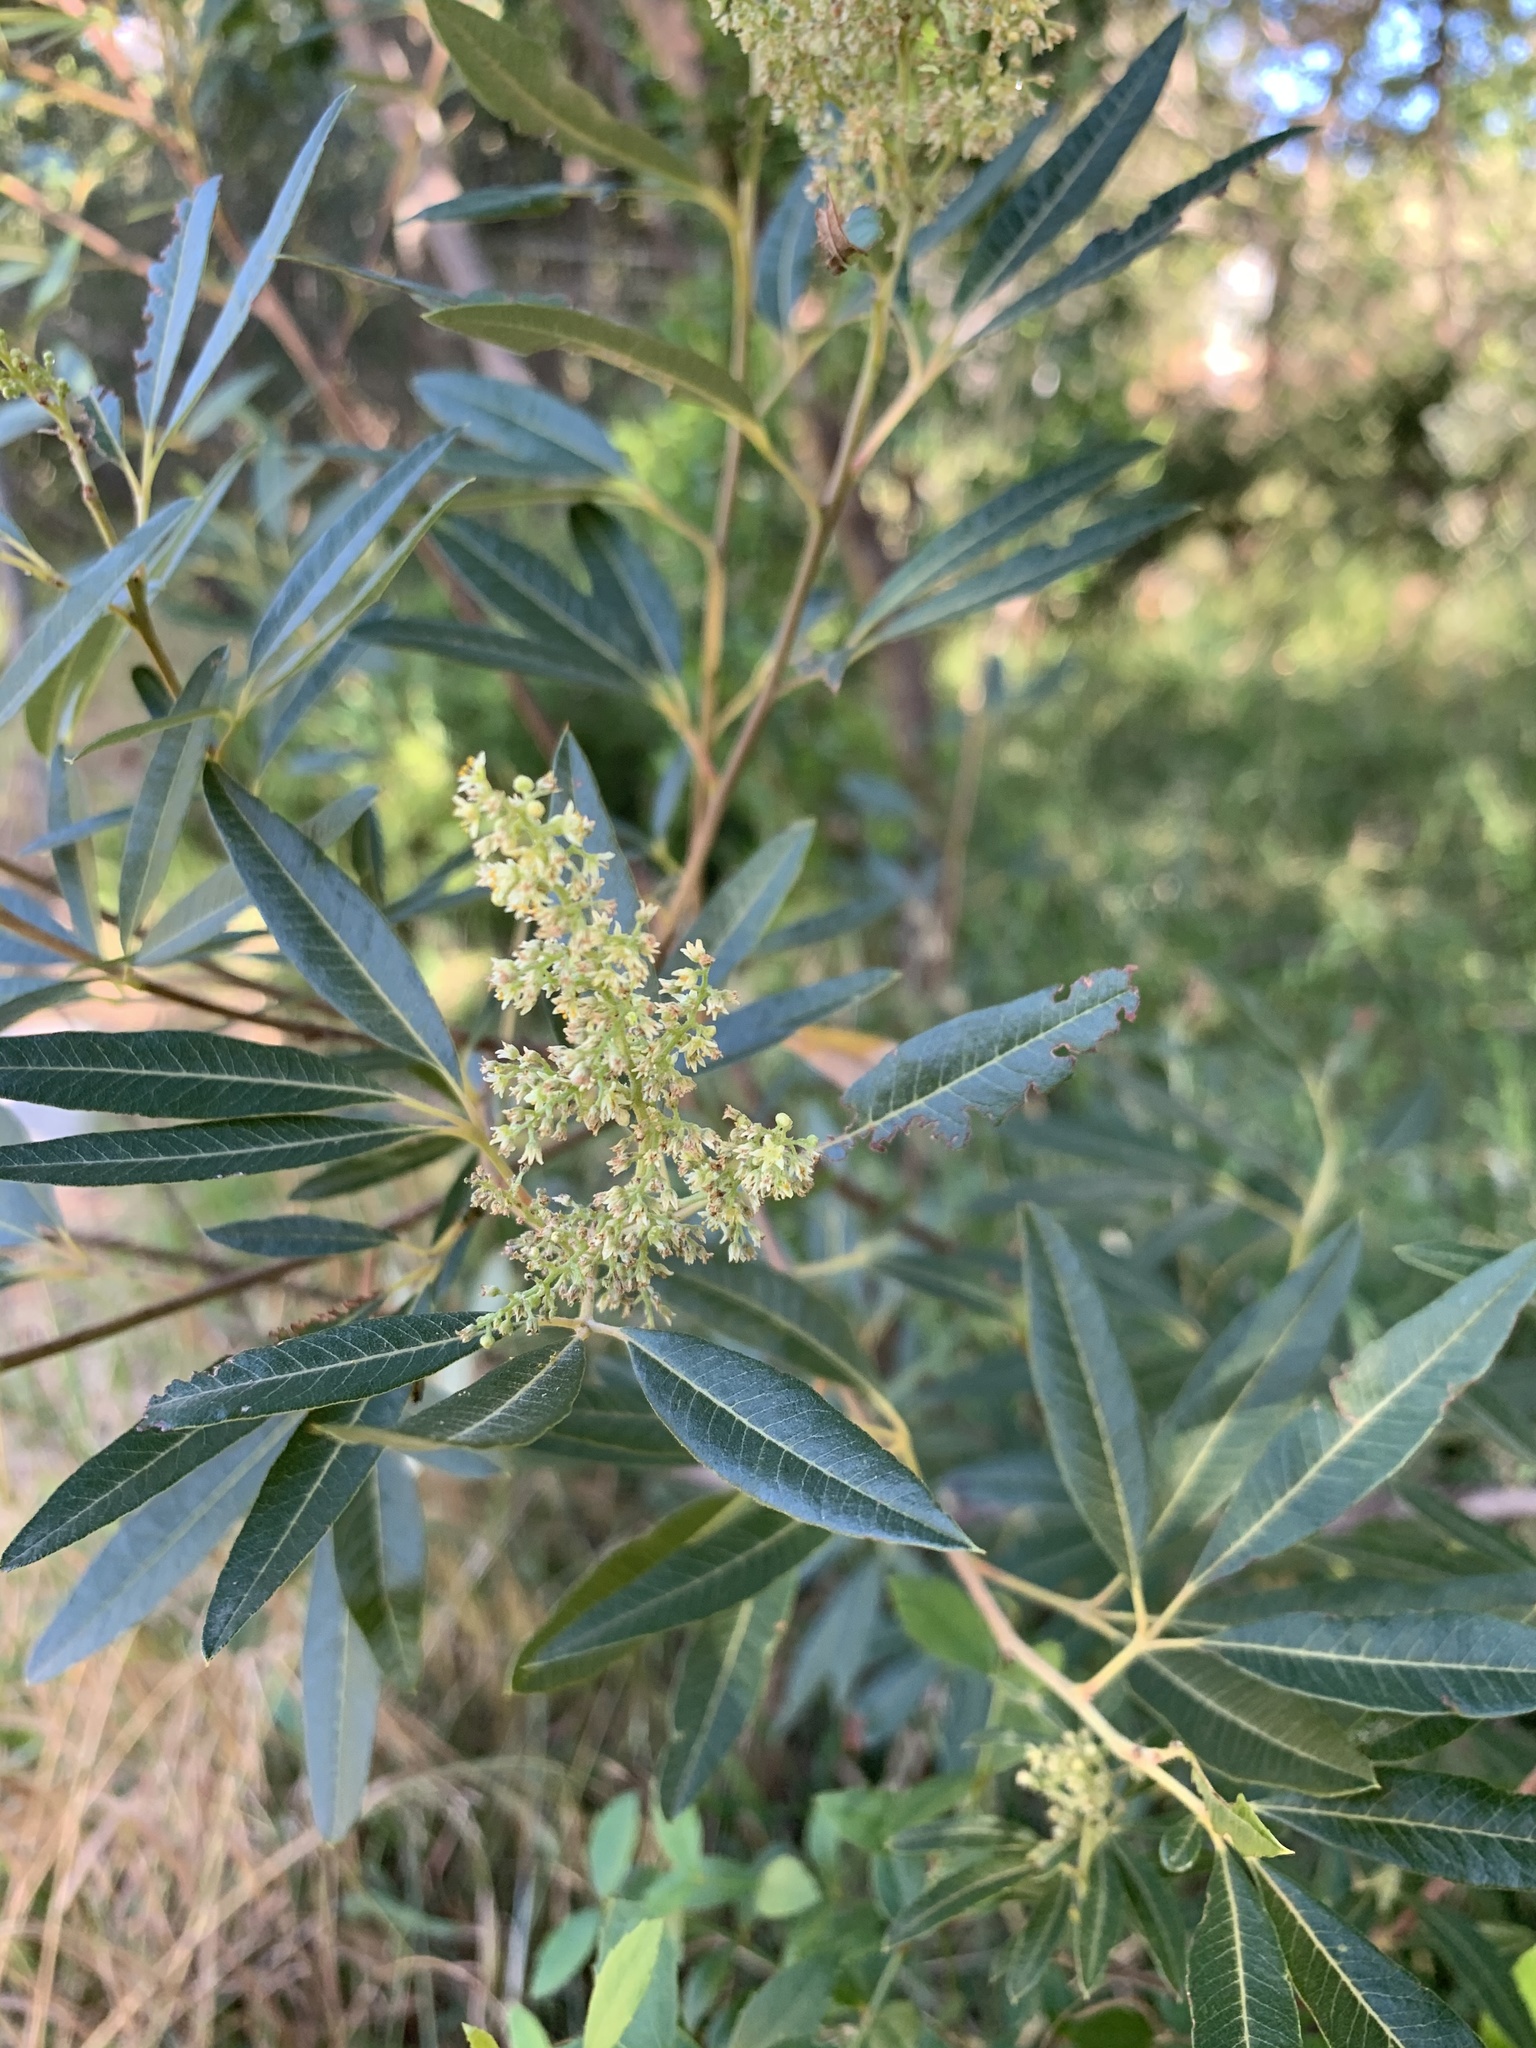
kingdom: Plantae
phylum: Tracheophyta
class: Magnoliopsida
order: Sapindales
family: Anacardiaceae
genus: Searsia
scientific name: Searsia angustifolia
